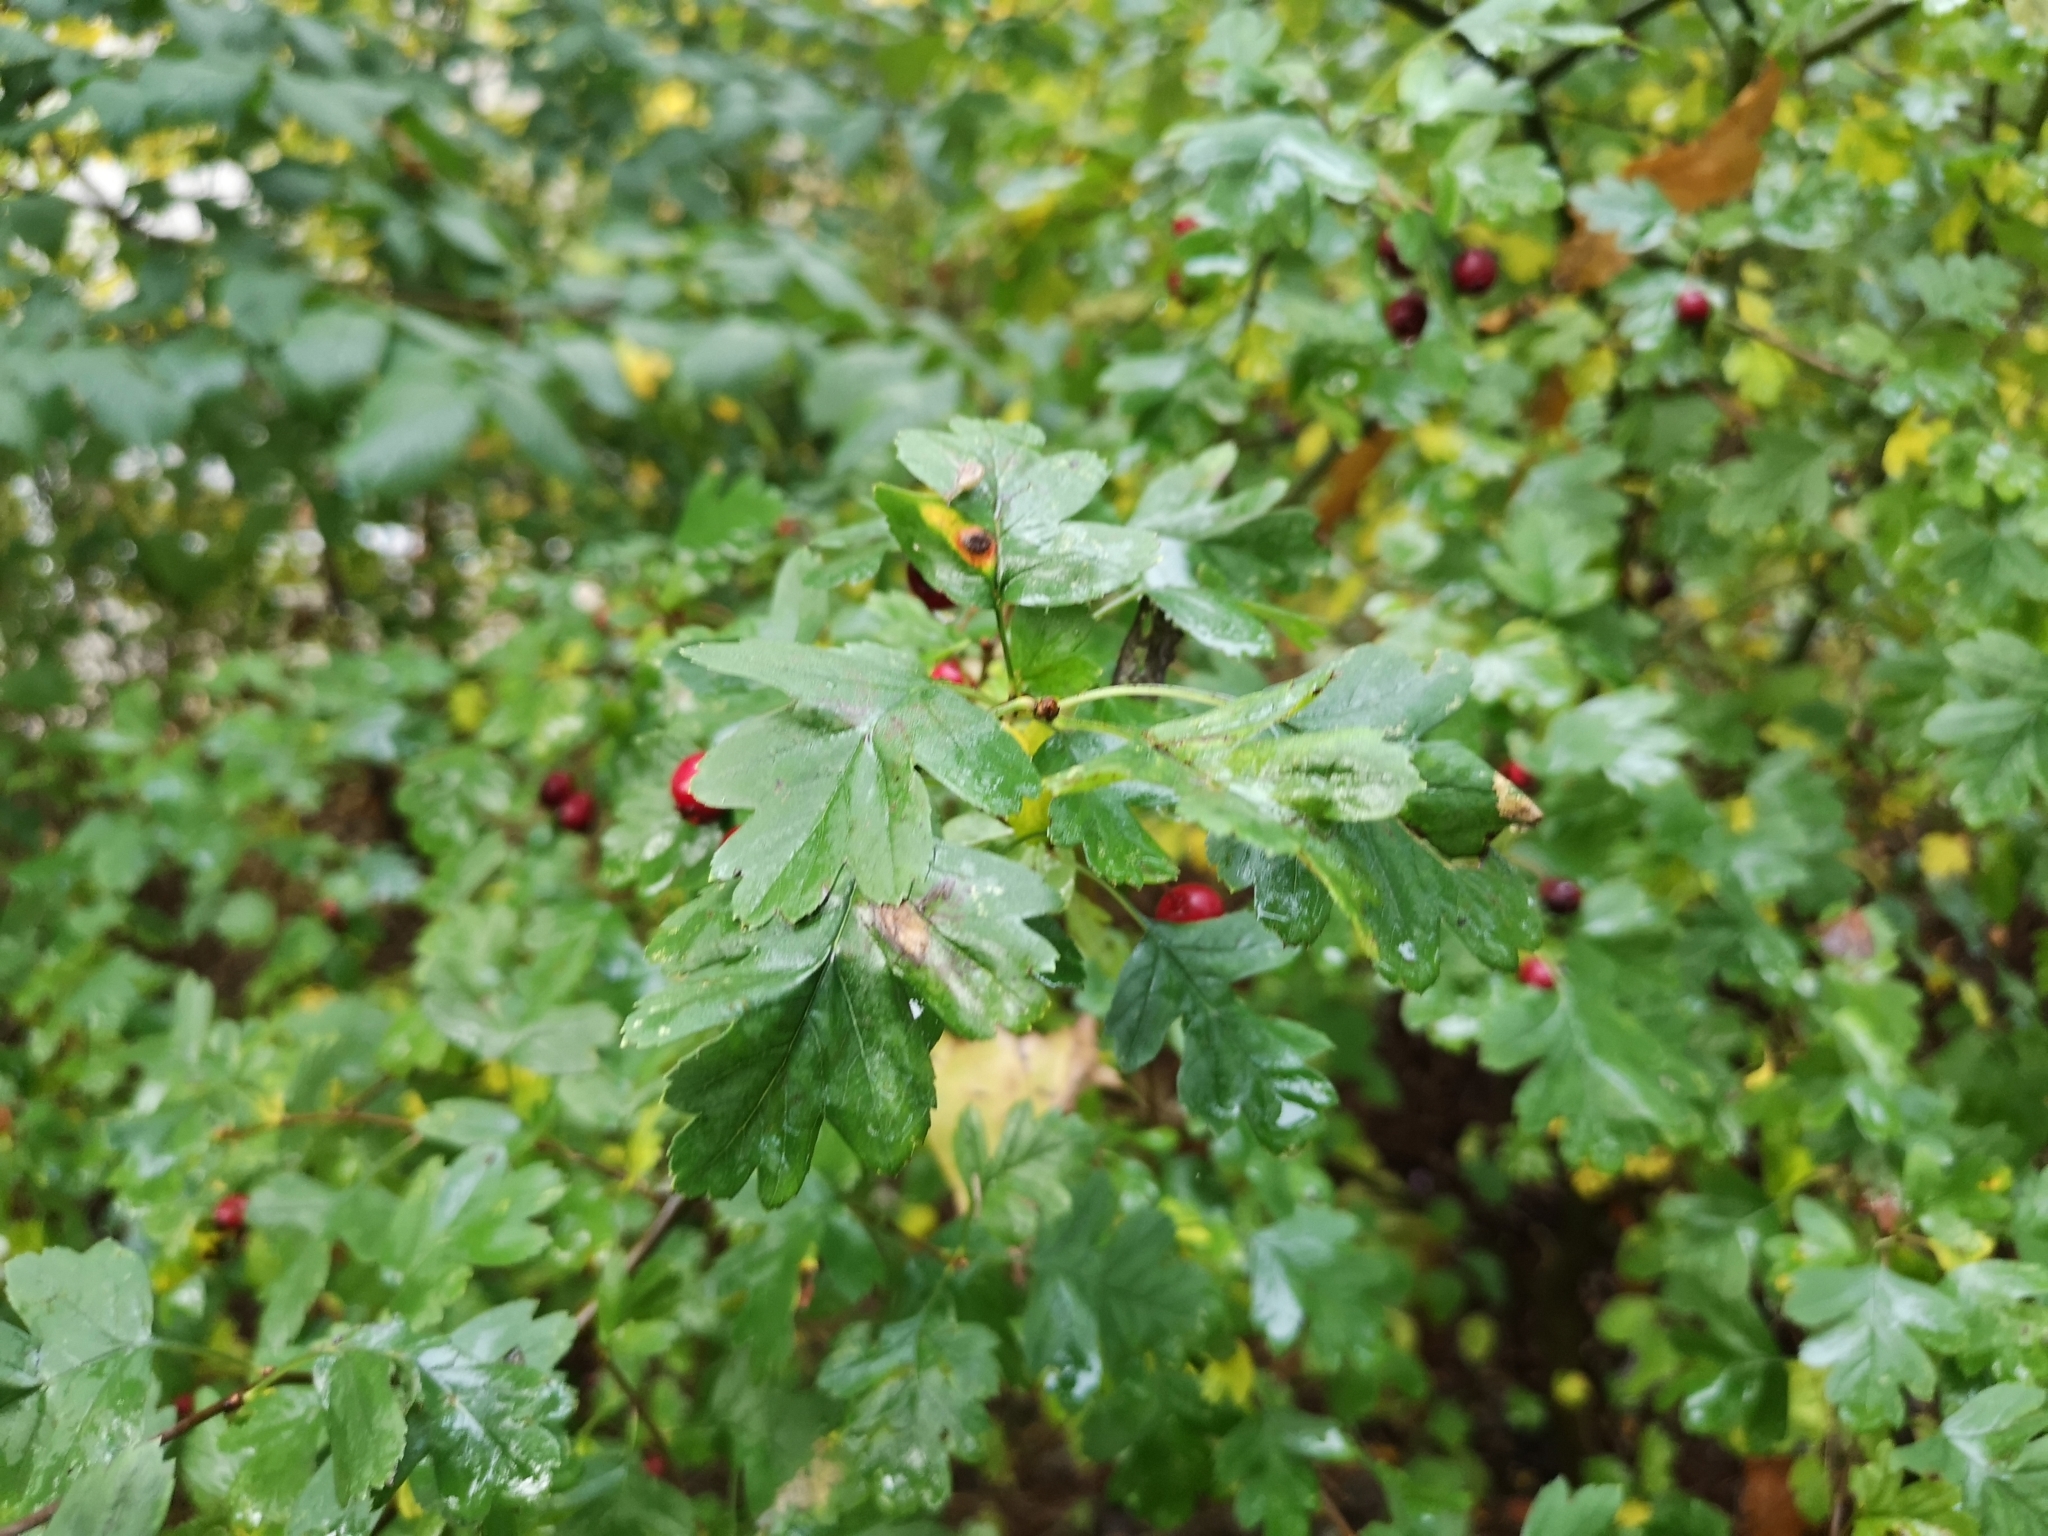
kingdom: Plantae
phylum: Tracheophyta
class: Magnoliopsida
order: Rosales
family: Rosaceae
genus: Crataegus
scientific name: Crataegus monogyna
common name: Hawthorn
